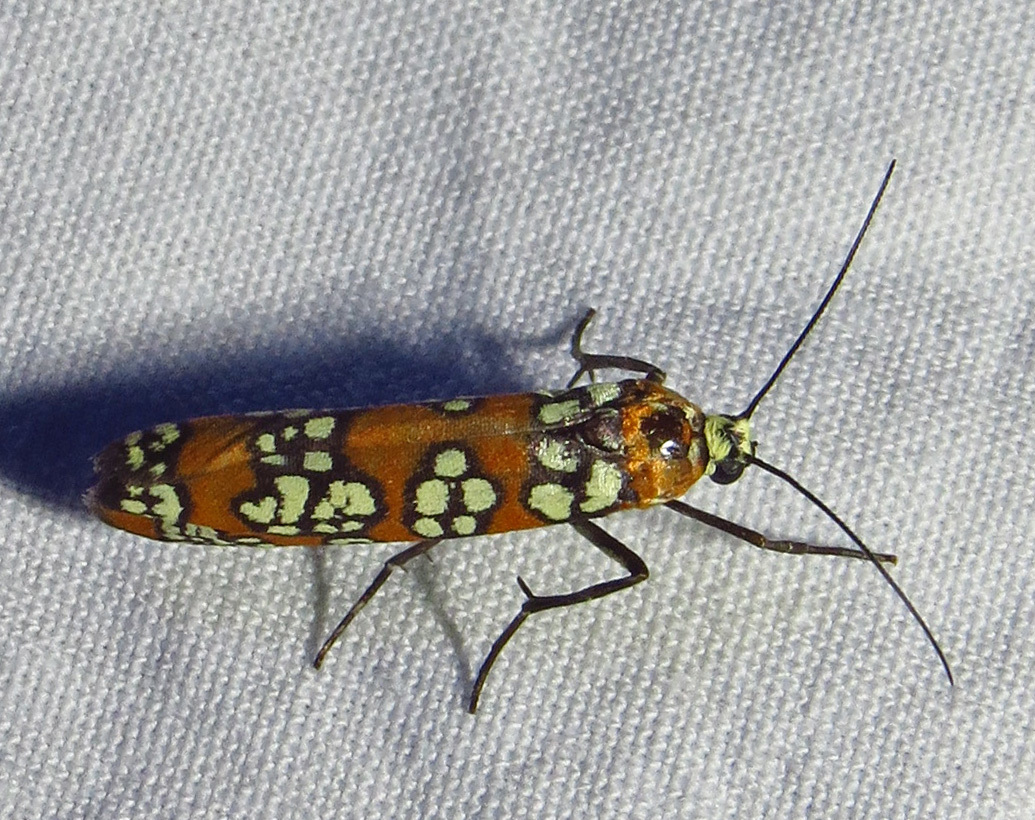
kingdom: Animalia
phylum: Arthropoda
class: Insecta
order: Lepidoptera
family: Attevidae
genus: Atteva
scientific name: Atteva punctella
